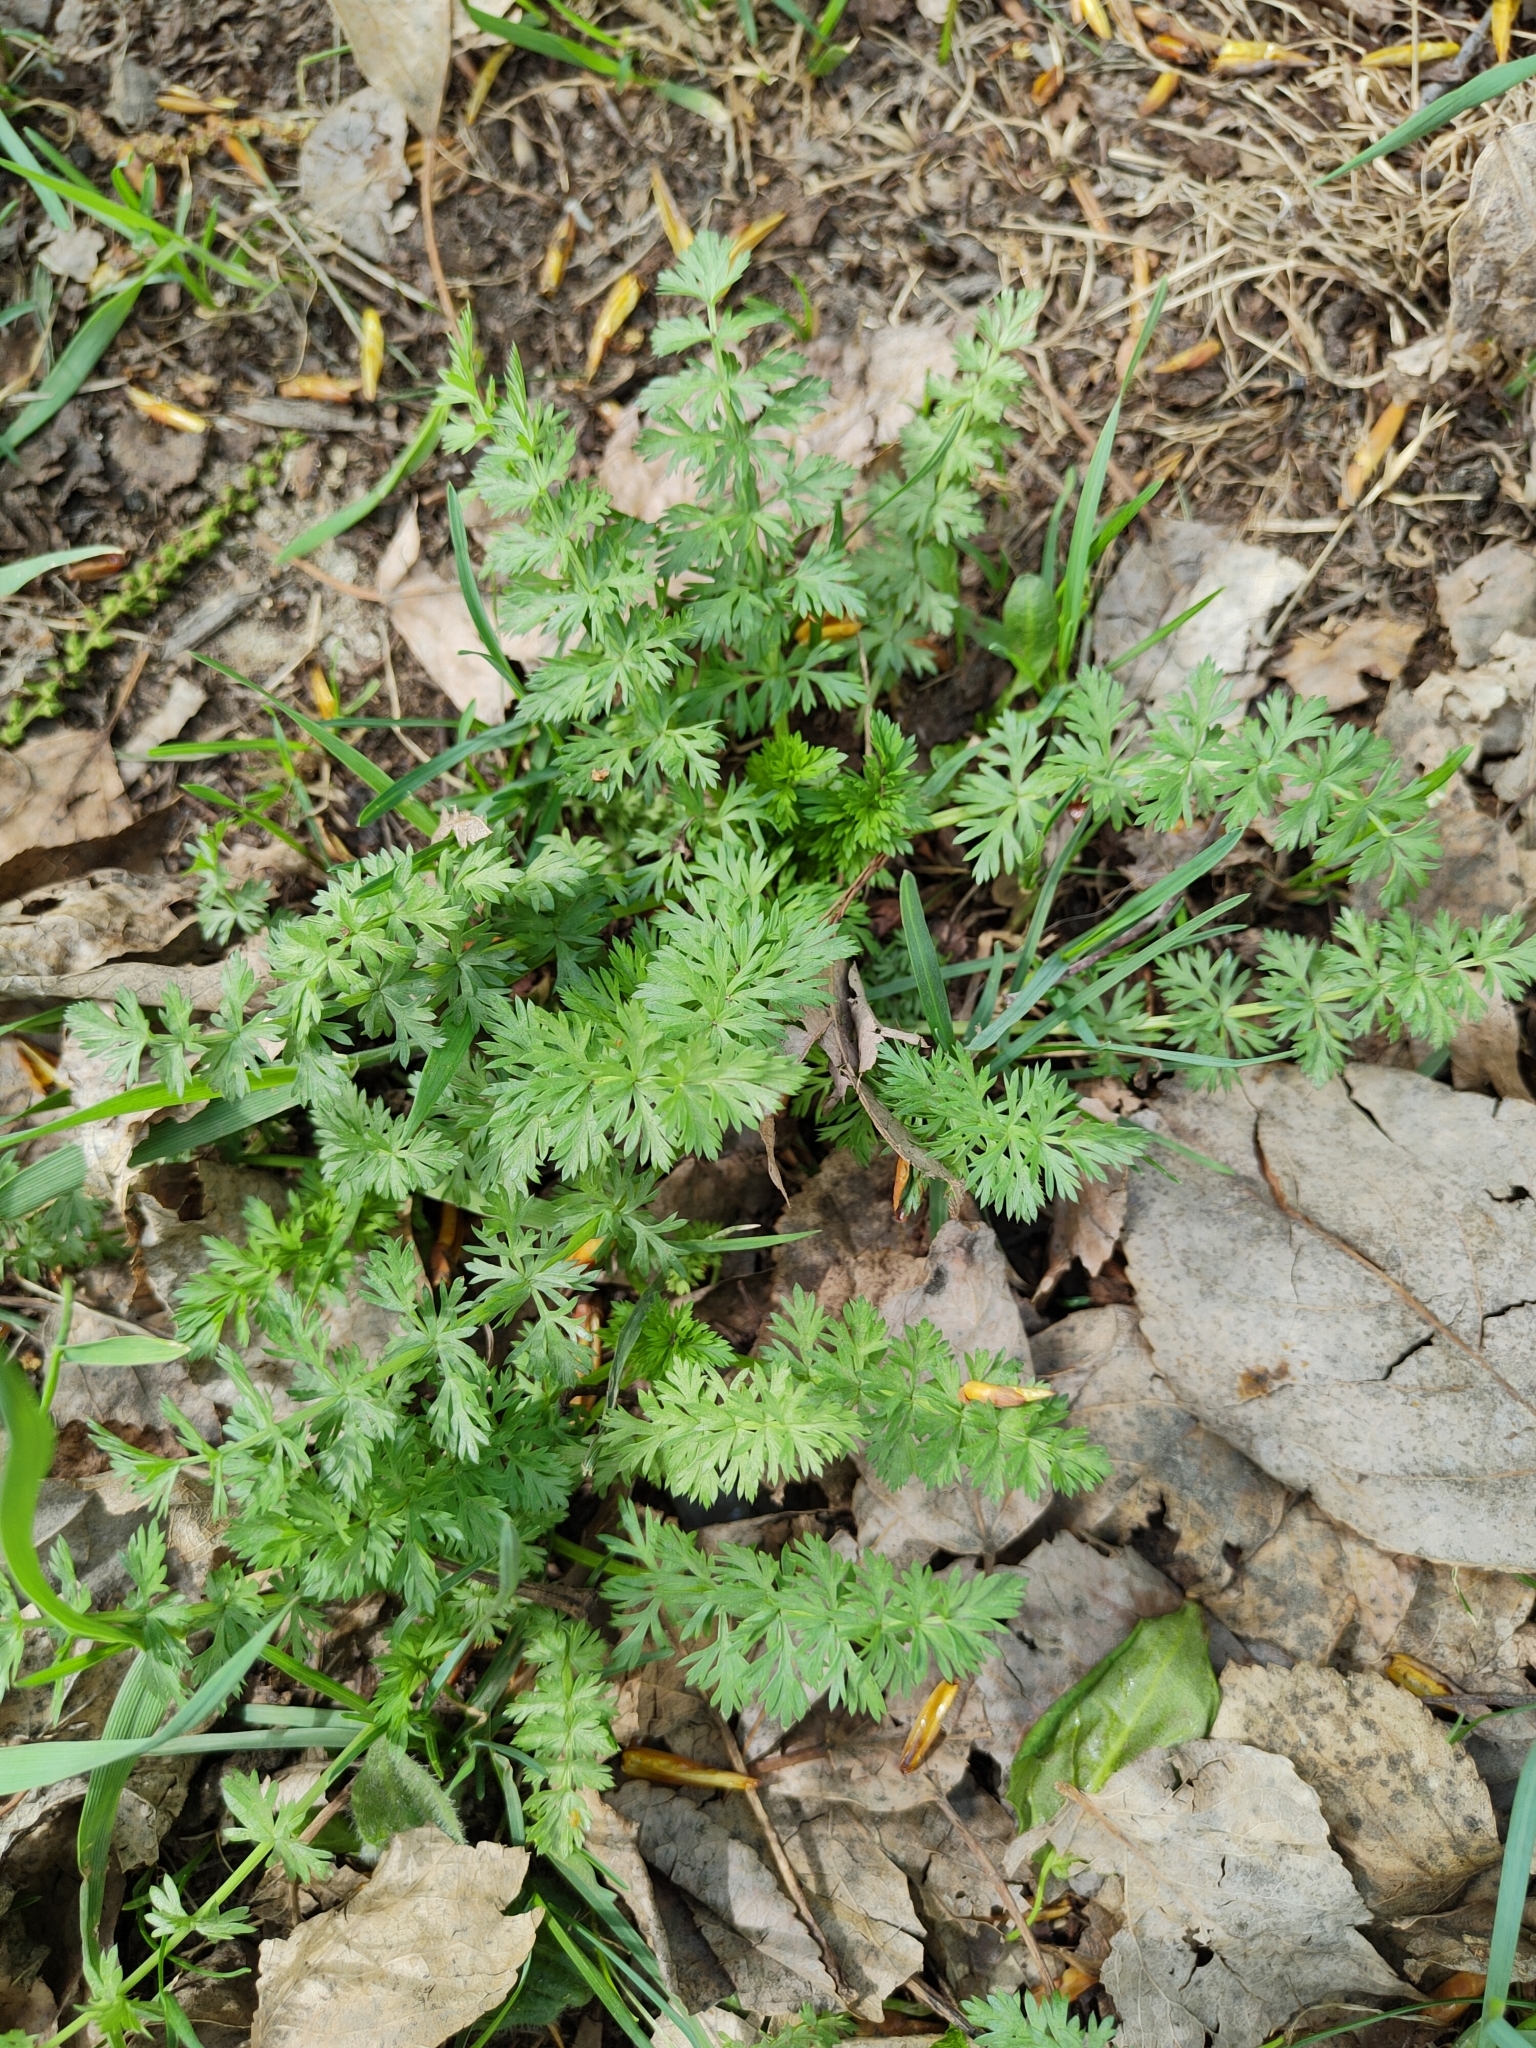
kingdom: Plantae
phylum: Tracheophyta
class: Magnoliopsida
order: Apiales
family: Apiaceae
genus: Carum
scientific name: Carum carvi
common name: Caraway
